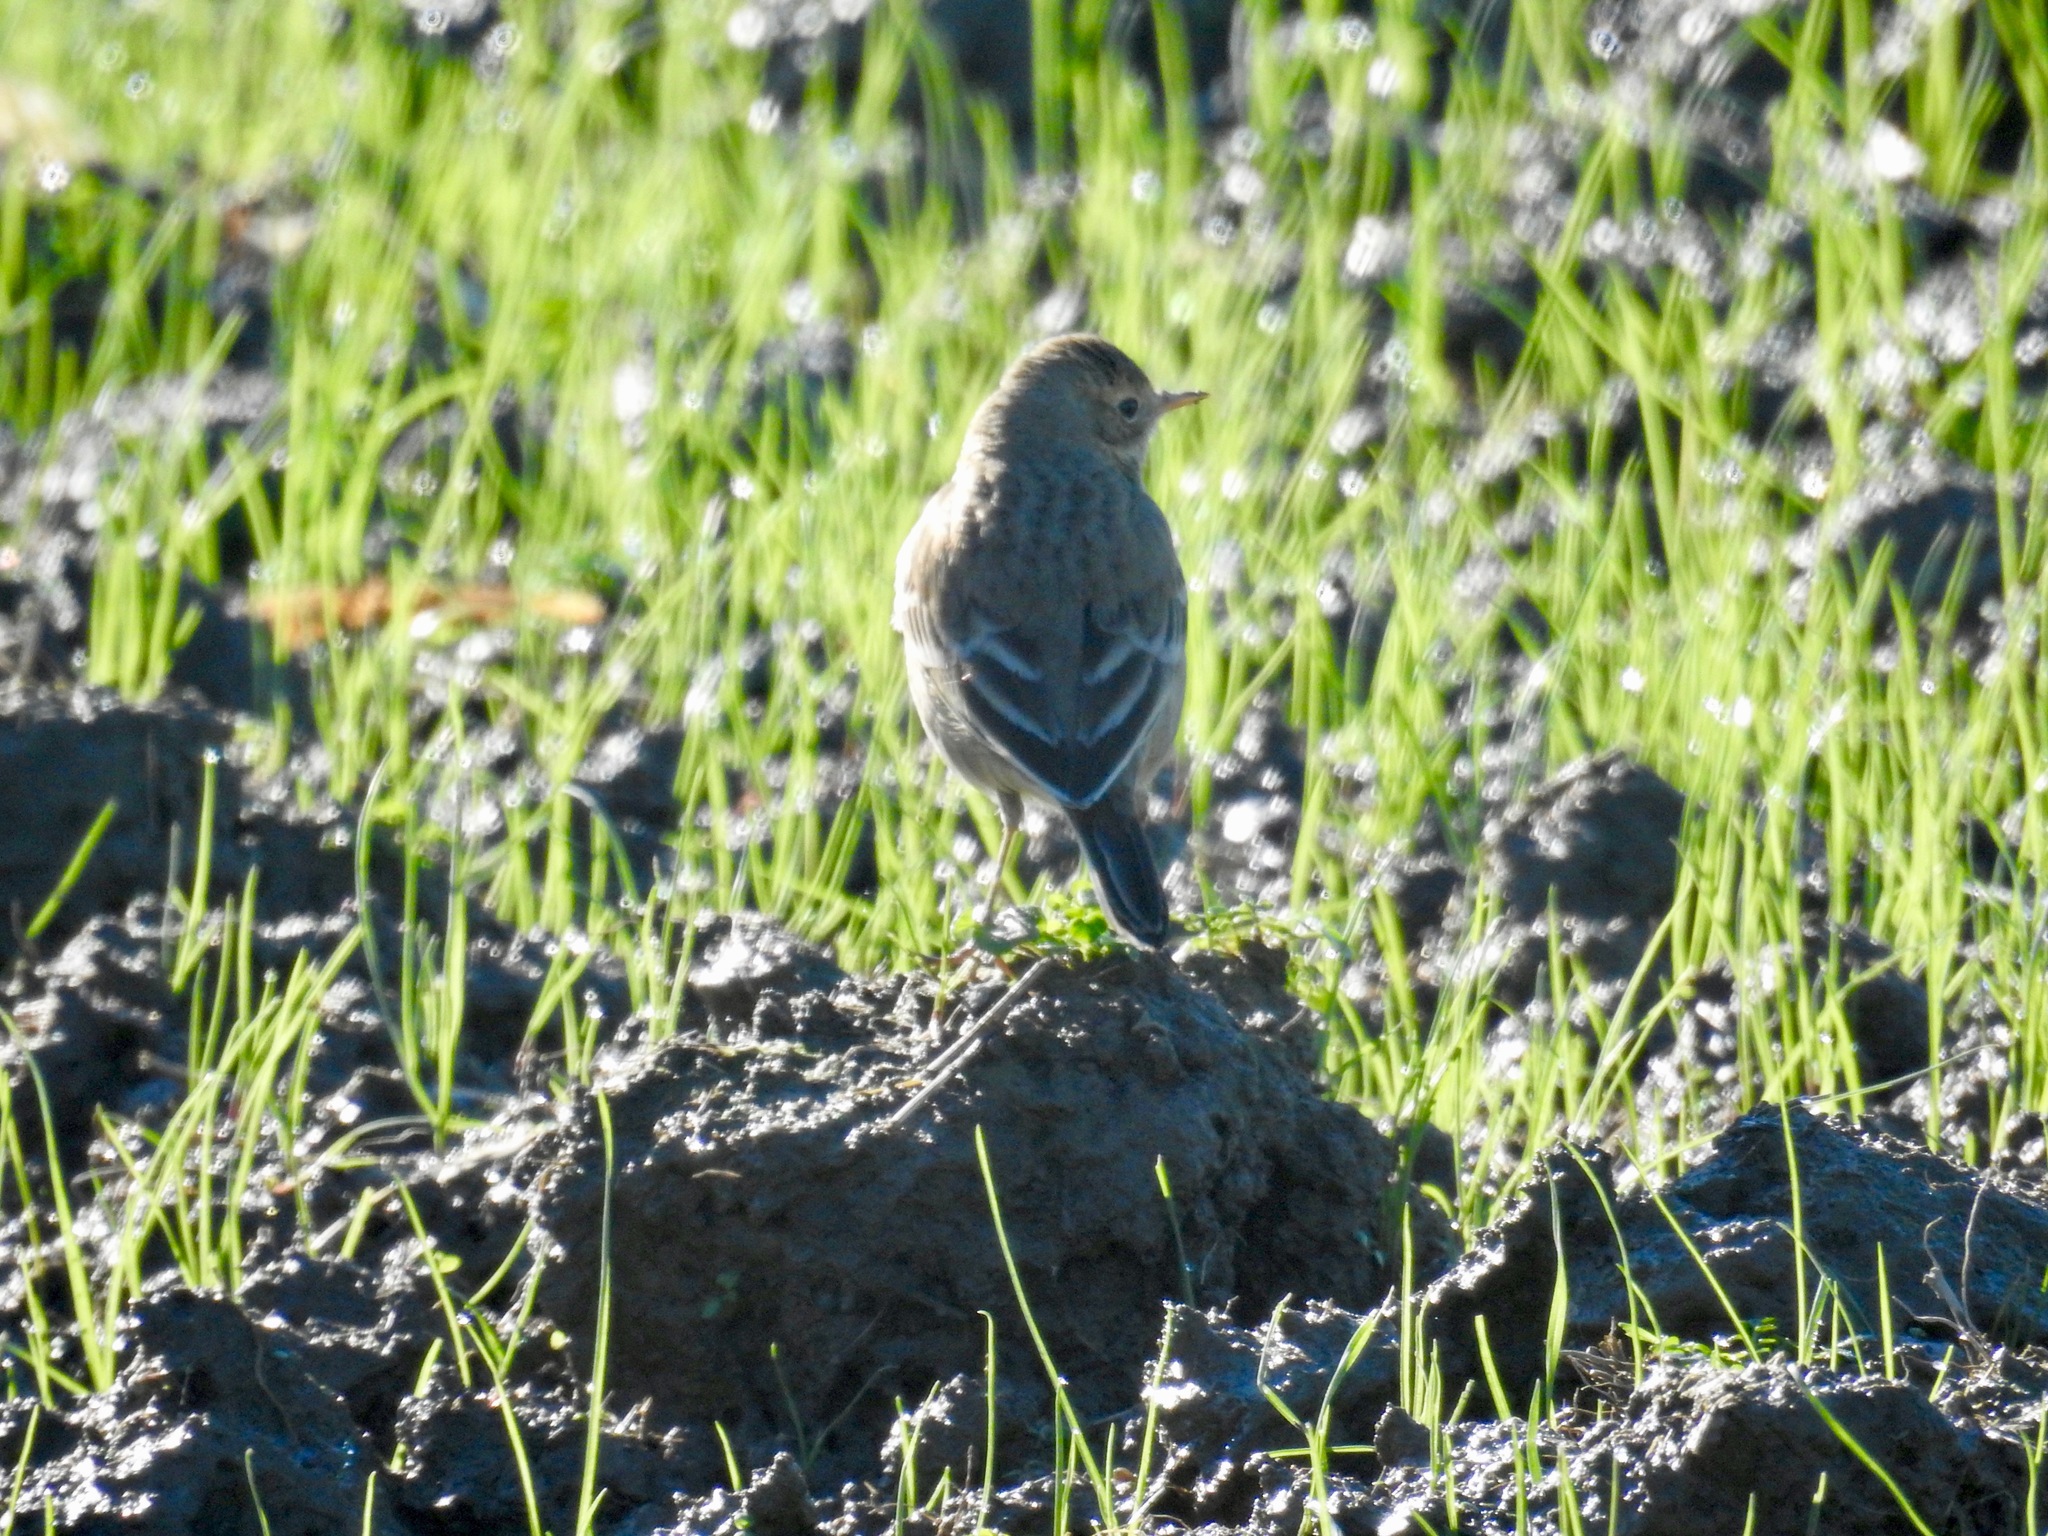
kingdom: Animalia
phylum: Chordata
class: Aves
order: Passeriformes
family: Motacillidae
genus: Anthus
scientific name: Anthus rubescens
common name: Buff-bellied pipit
